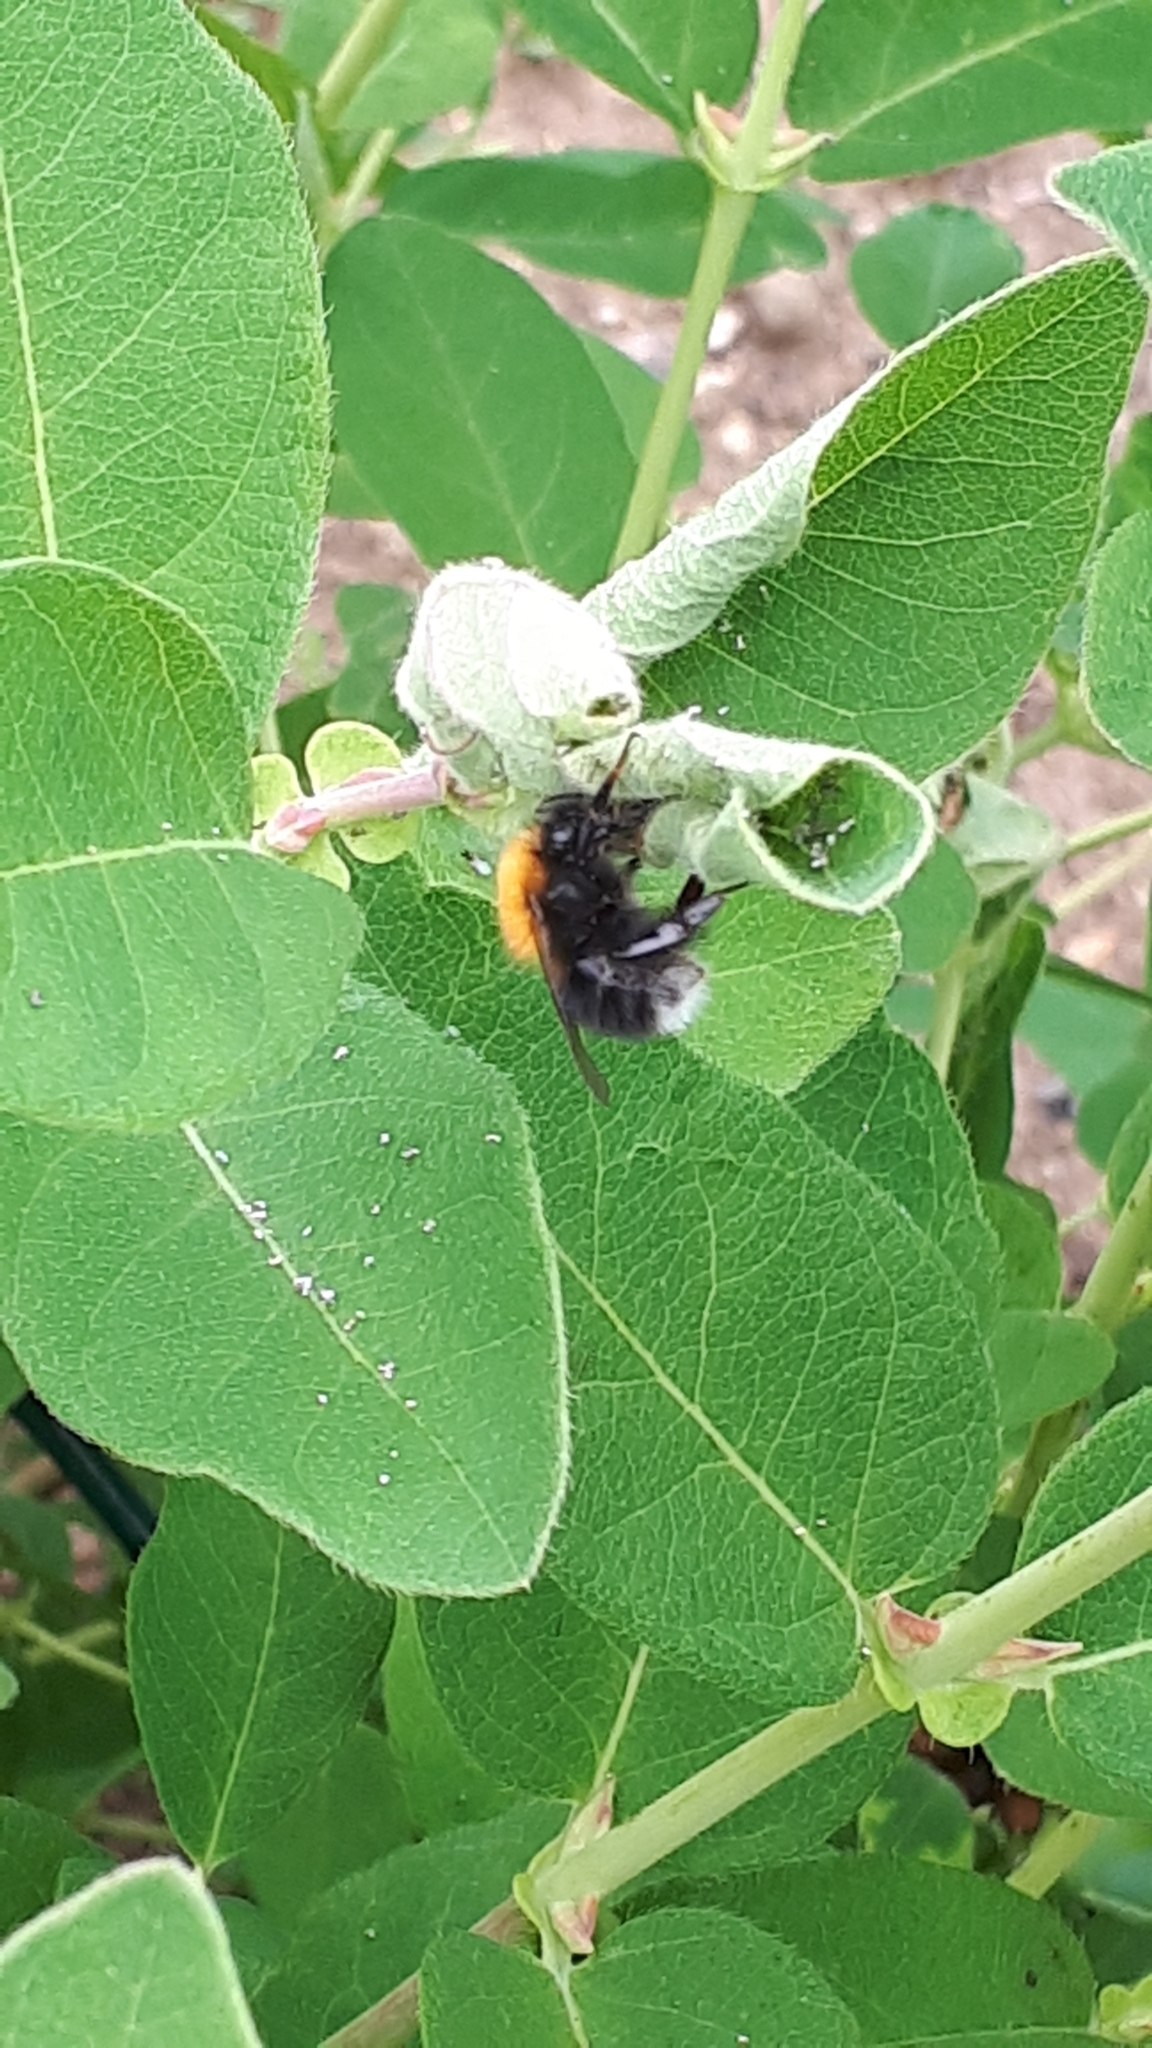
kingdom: Animalia
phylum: Arthropoda
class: Insecta
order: Hymenoptera
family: Apidae
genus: Bombus
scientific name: Bombus hypnorum
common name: New garden bumblebee
